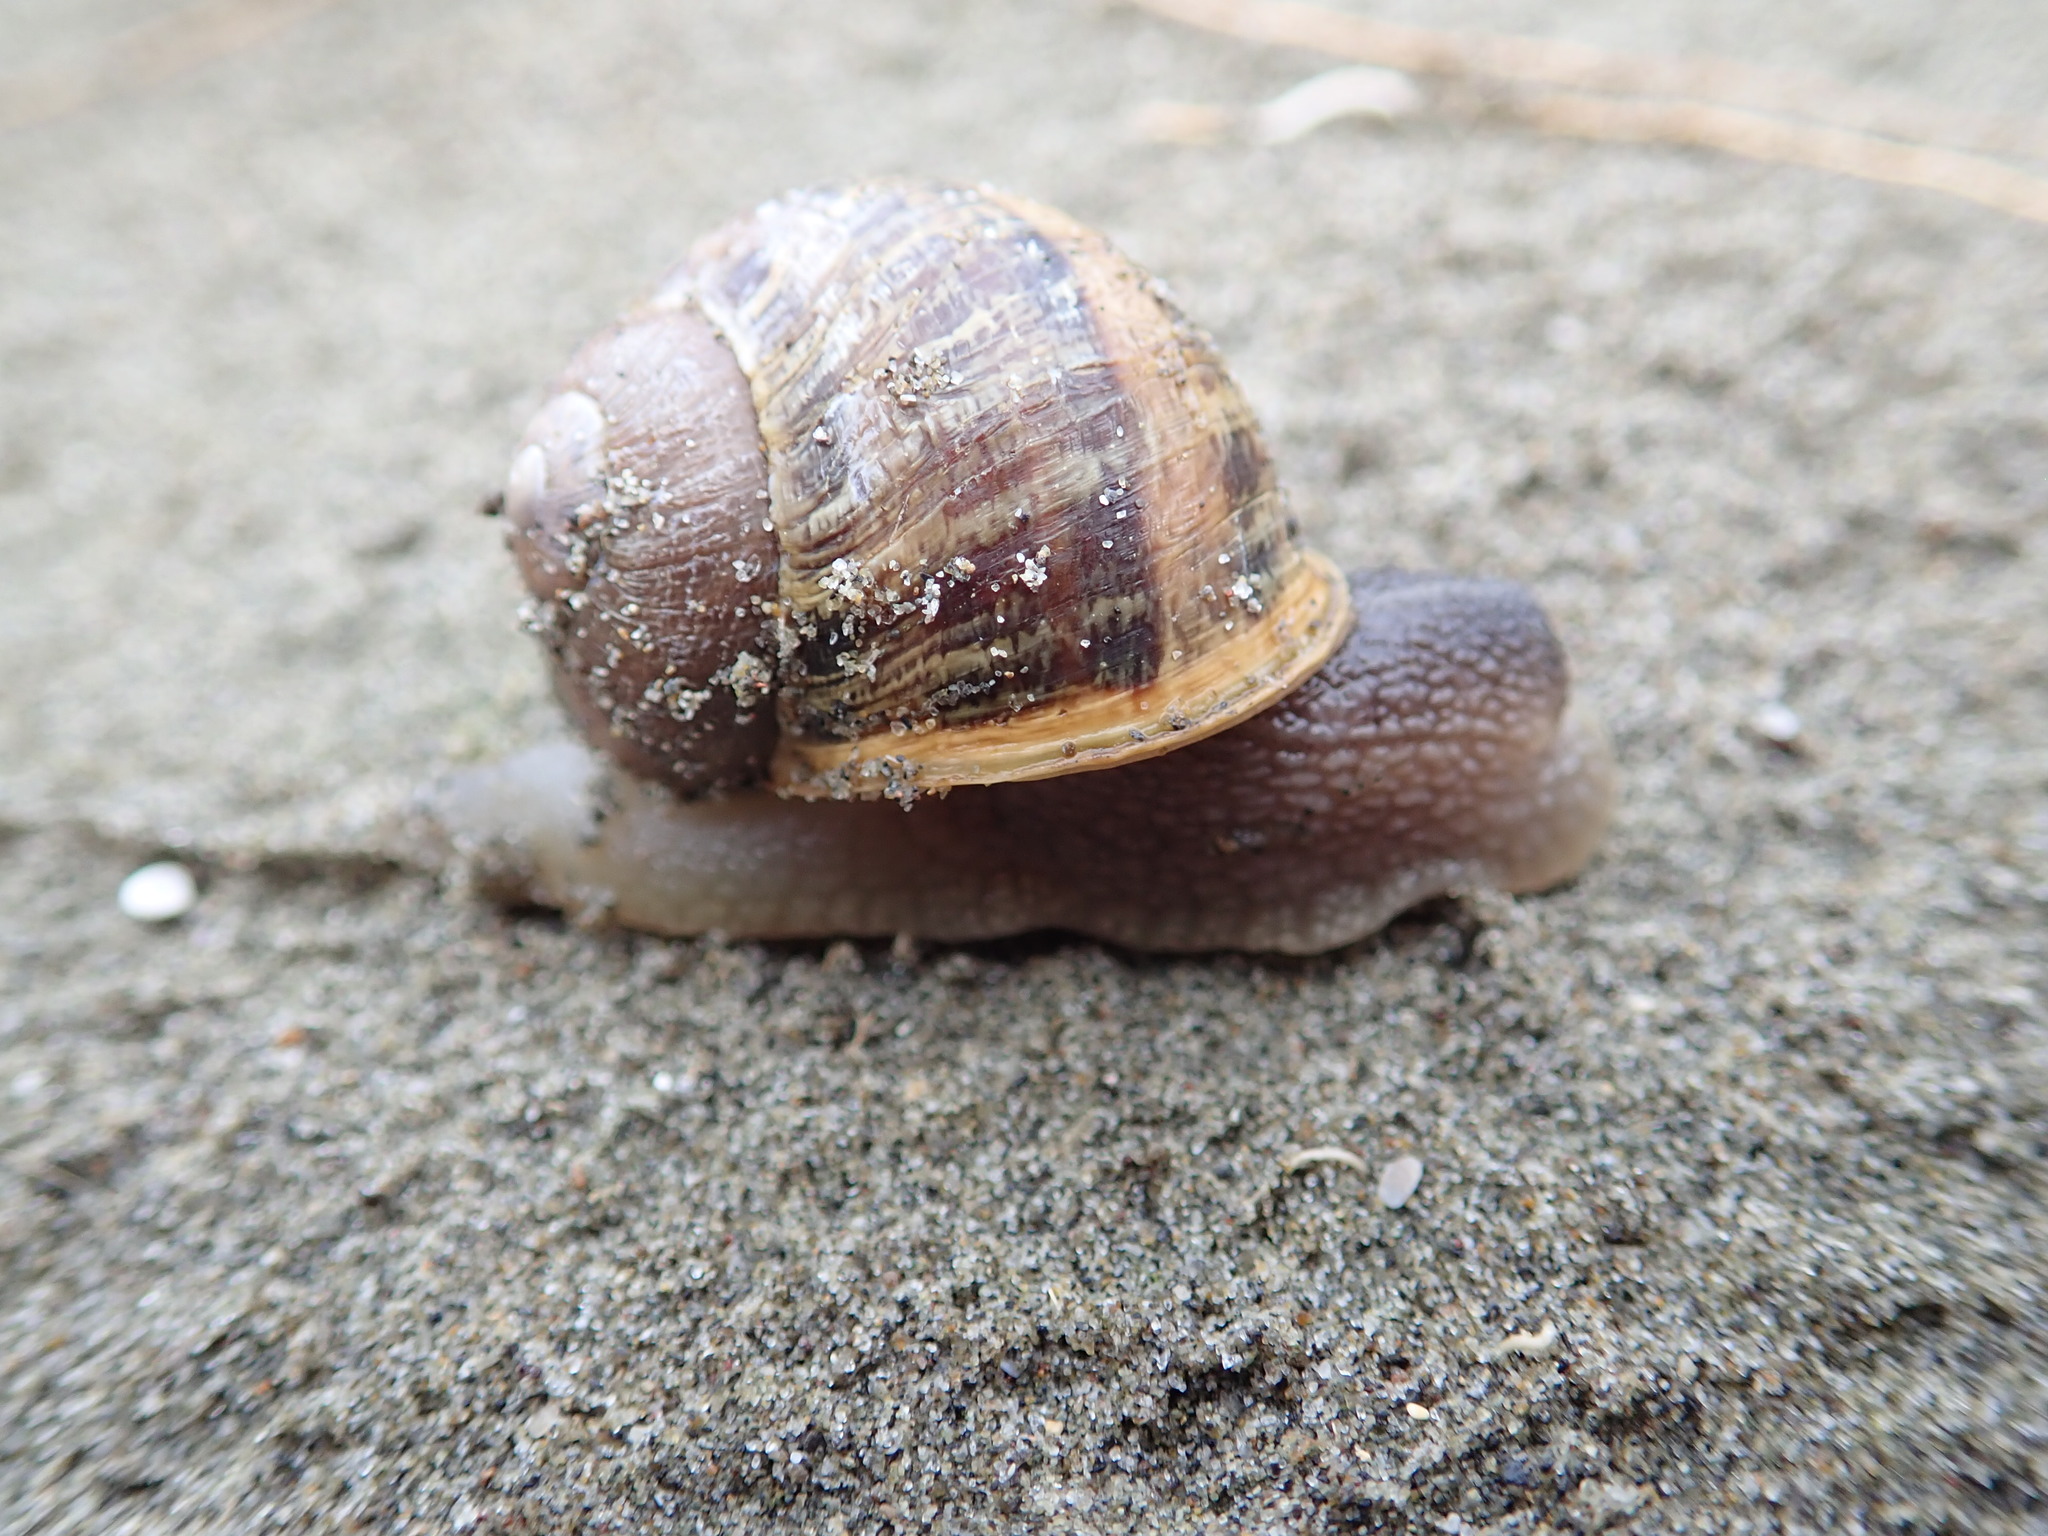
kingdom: Animalia
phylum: Mollusca
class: Gastropoda
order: Stylommatophora
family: Helicidae
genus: Cornu
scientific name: Cornu aspersum
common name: Brown garden snail
